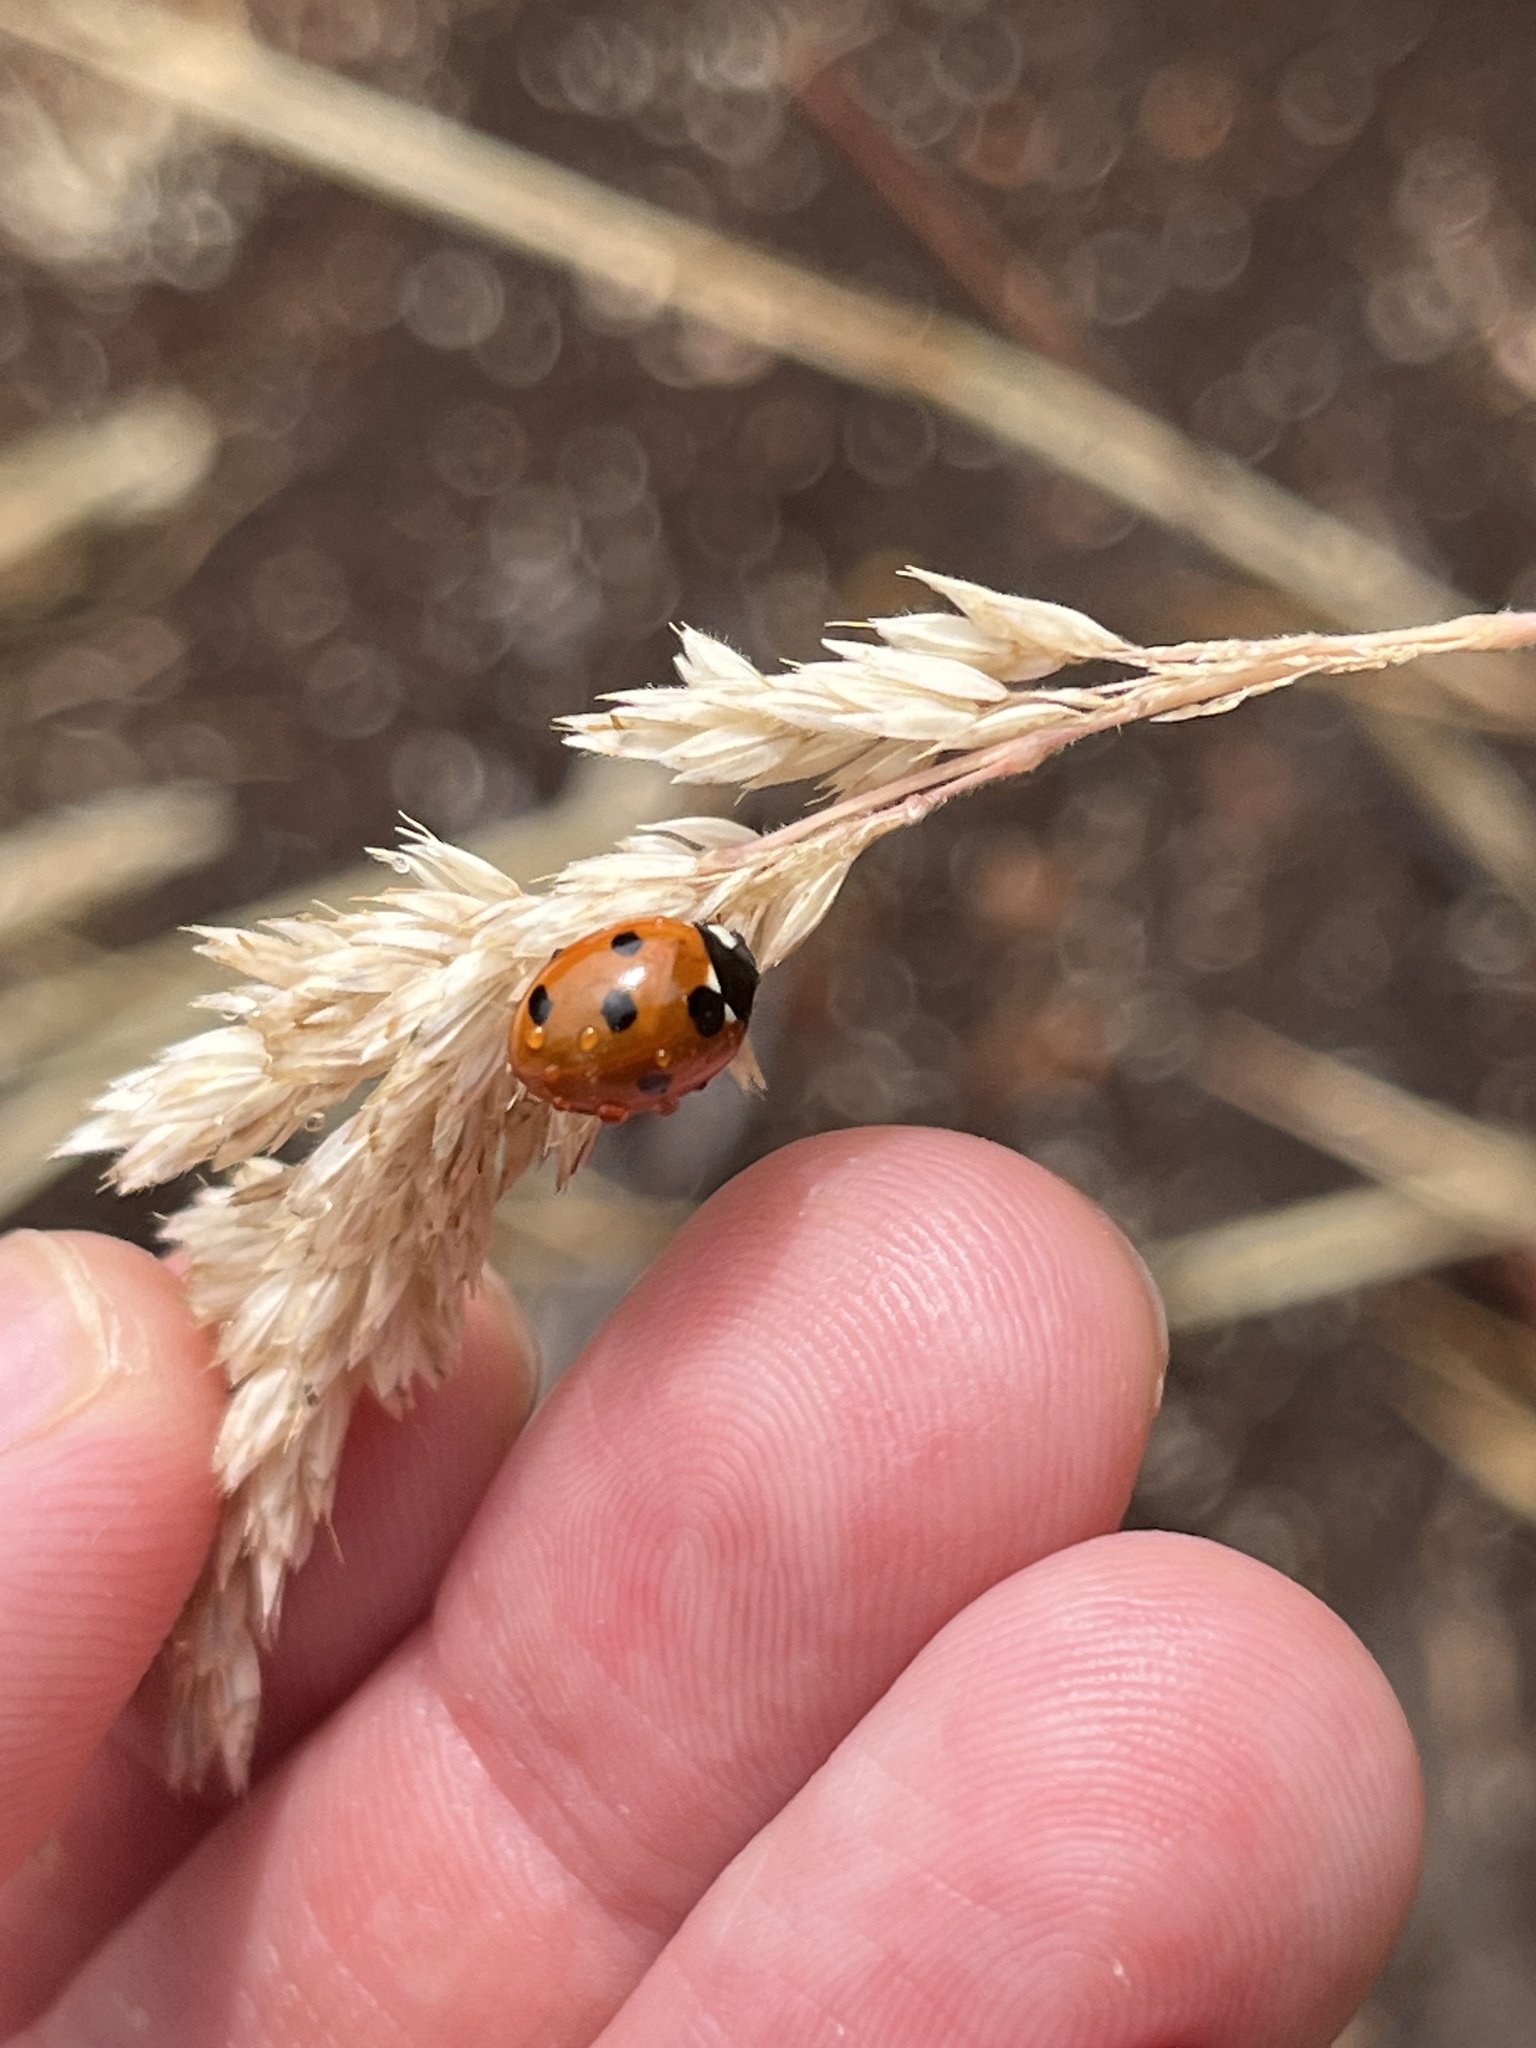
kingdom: Animalia
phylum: Arthropoda
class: Insecta
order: Coleoptera
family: Coccinellidae
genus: Coccinella
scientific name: Coccinella septempunctata
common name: Sevenspotted lady beetle
